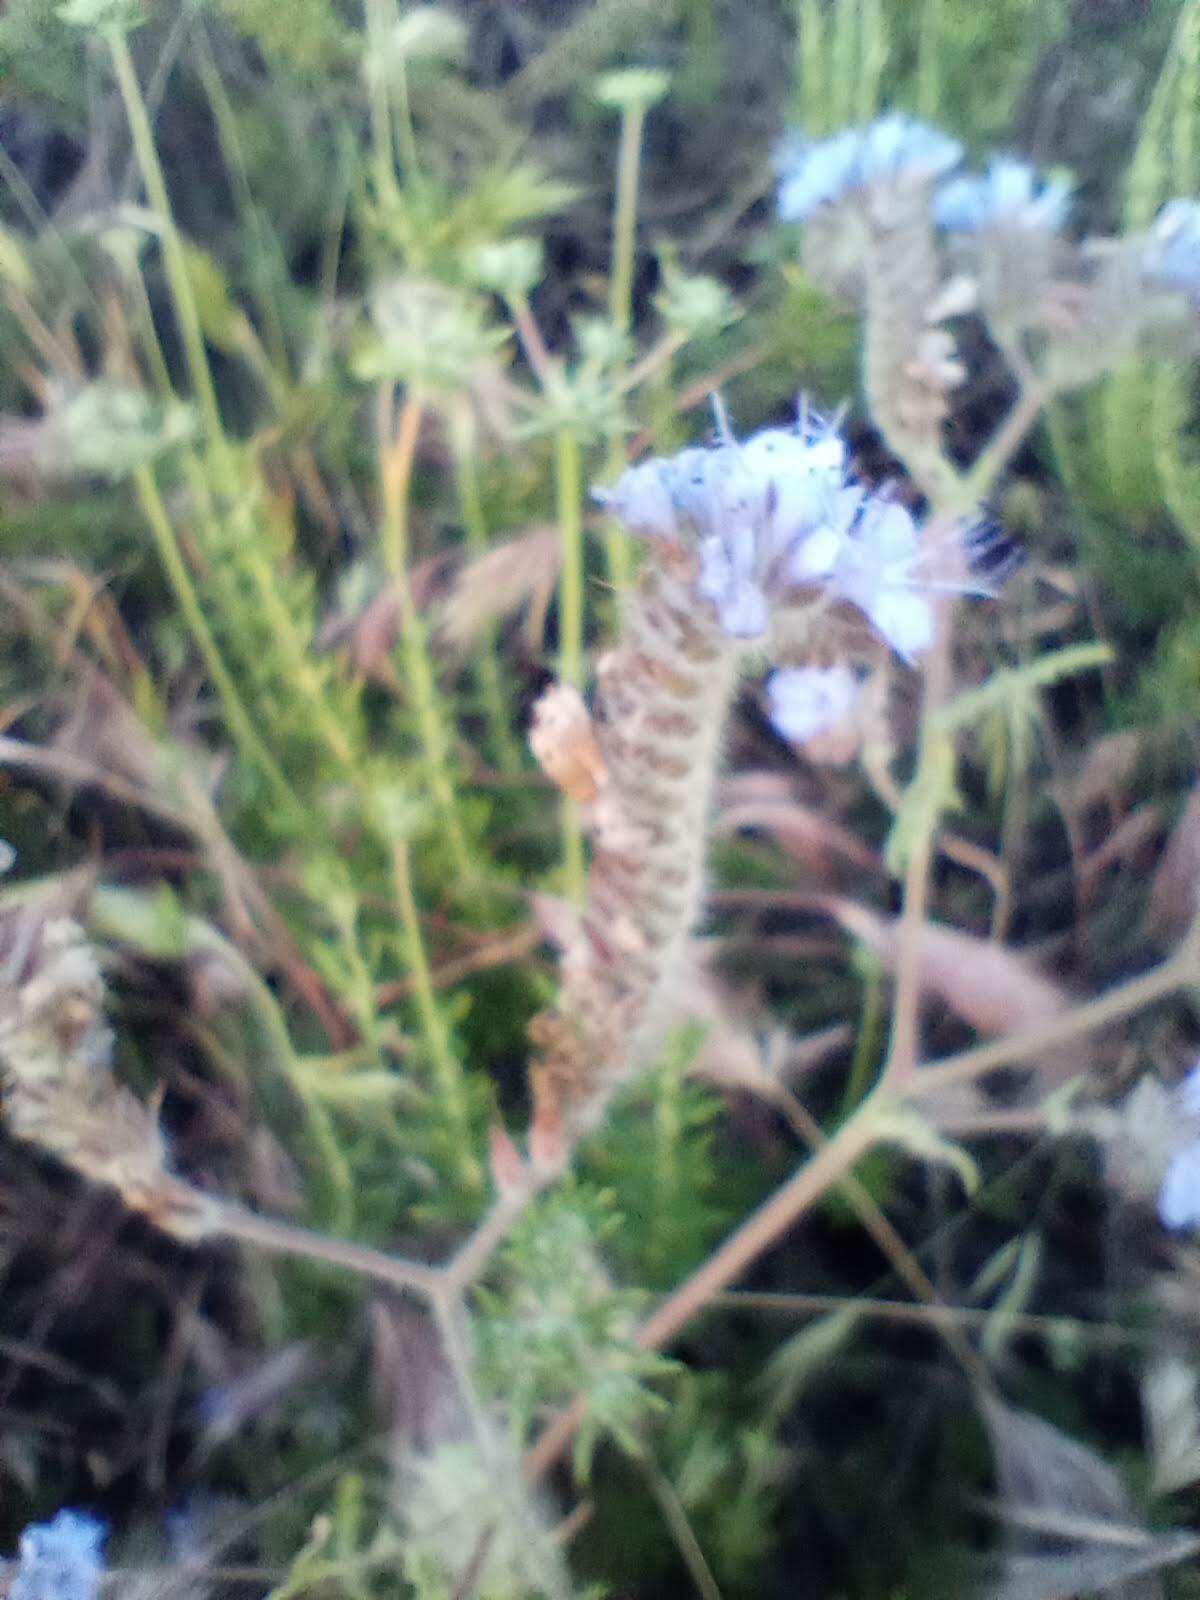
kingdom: Plantae
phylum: Tracheophyta
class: Magnoliopsida
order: Boraginales
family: Hydrophyllaceae
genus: Phacelia
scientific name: Phacelia distans
